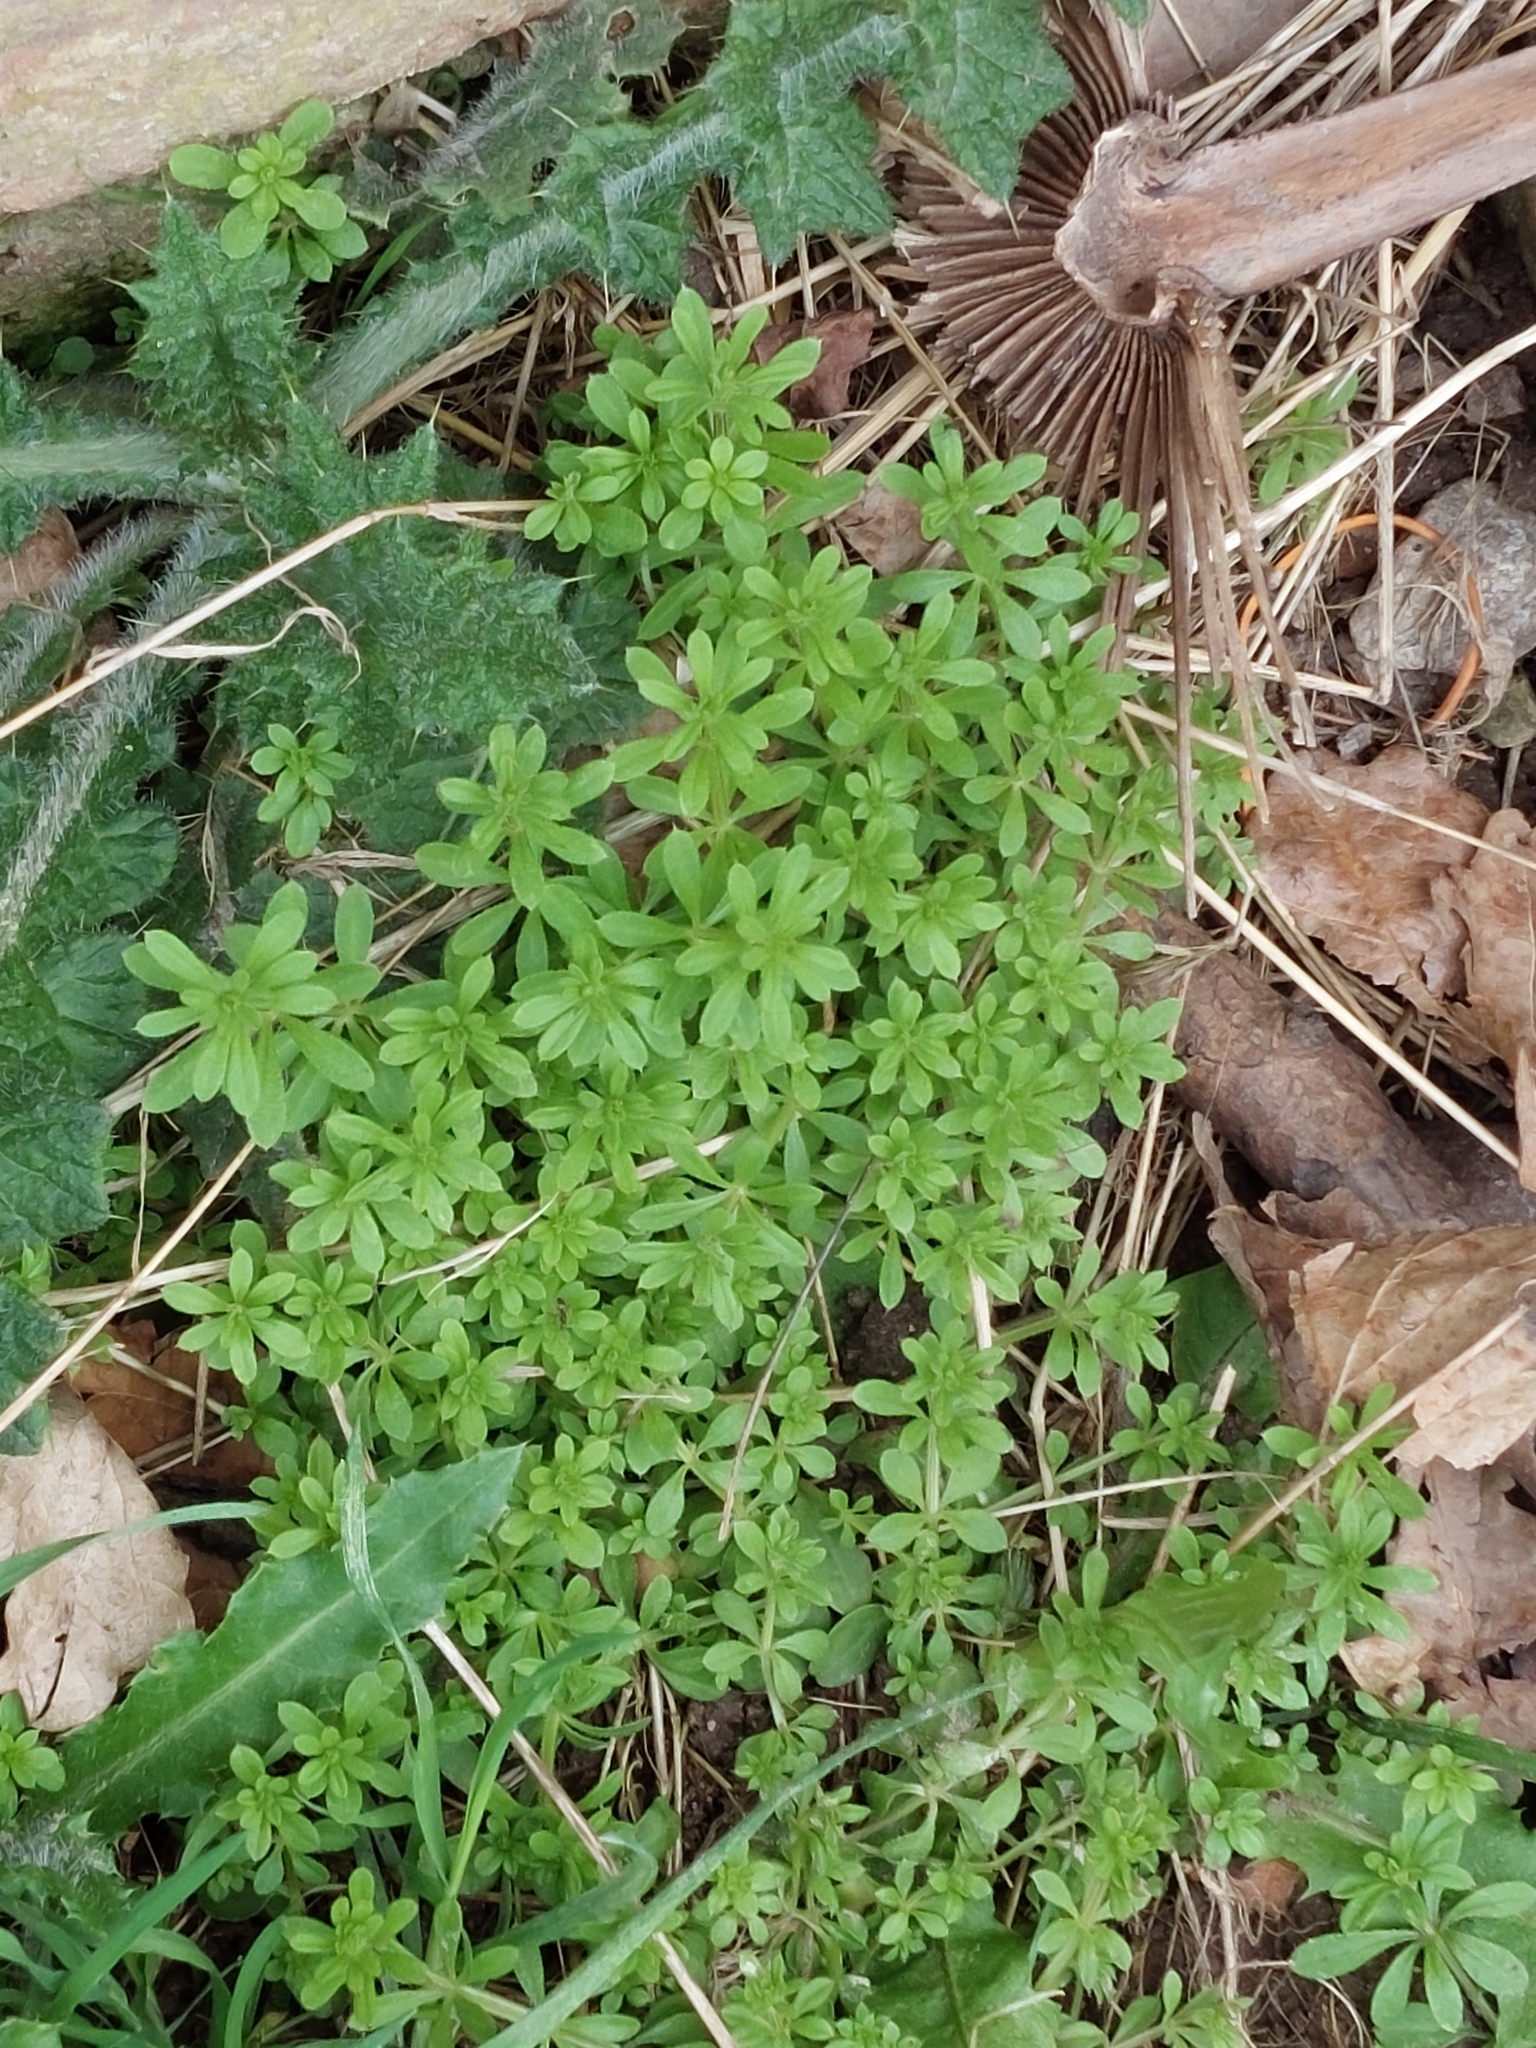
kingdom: Plantae
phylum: Tracheophyta
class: Magnoliopsida
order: Gentianales
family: Rubiaceae
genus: Galium
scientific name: Galium aparine
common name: Cleavers
